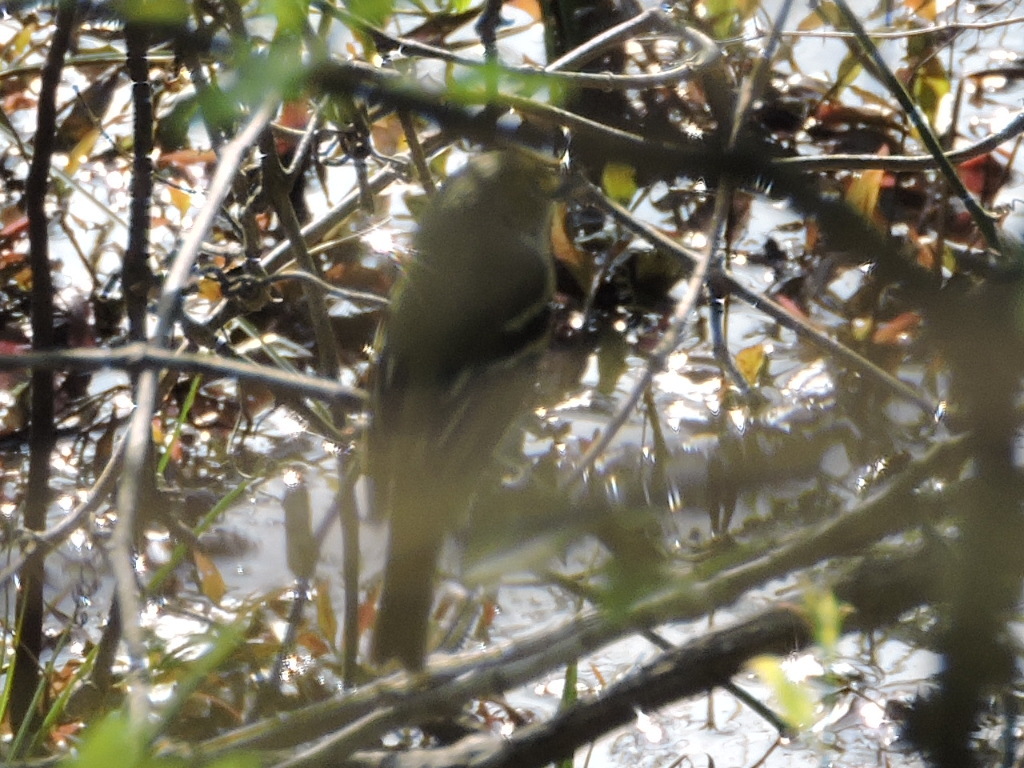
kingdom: Animalia
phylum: Chordata
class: Aves
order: Passeriformes
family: Vireonidae
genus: Vireo
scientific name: Vireo griseus
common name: White-eyed vireo
